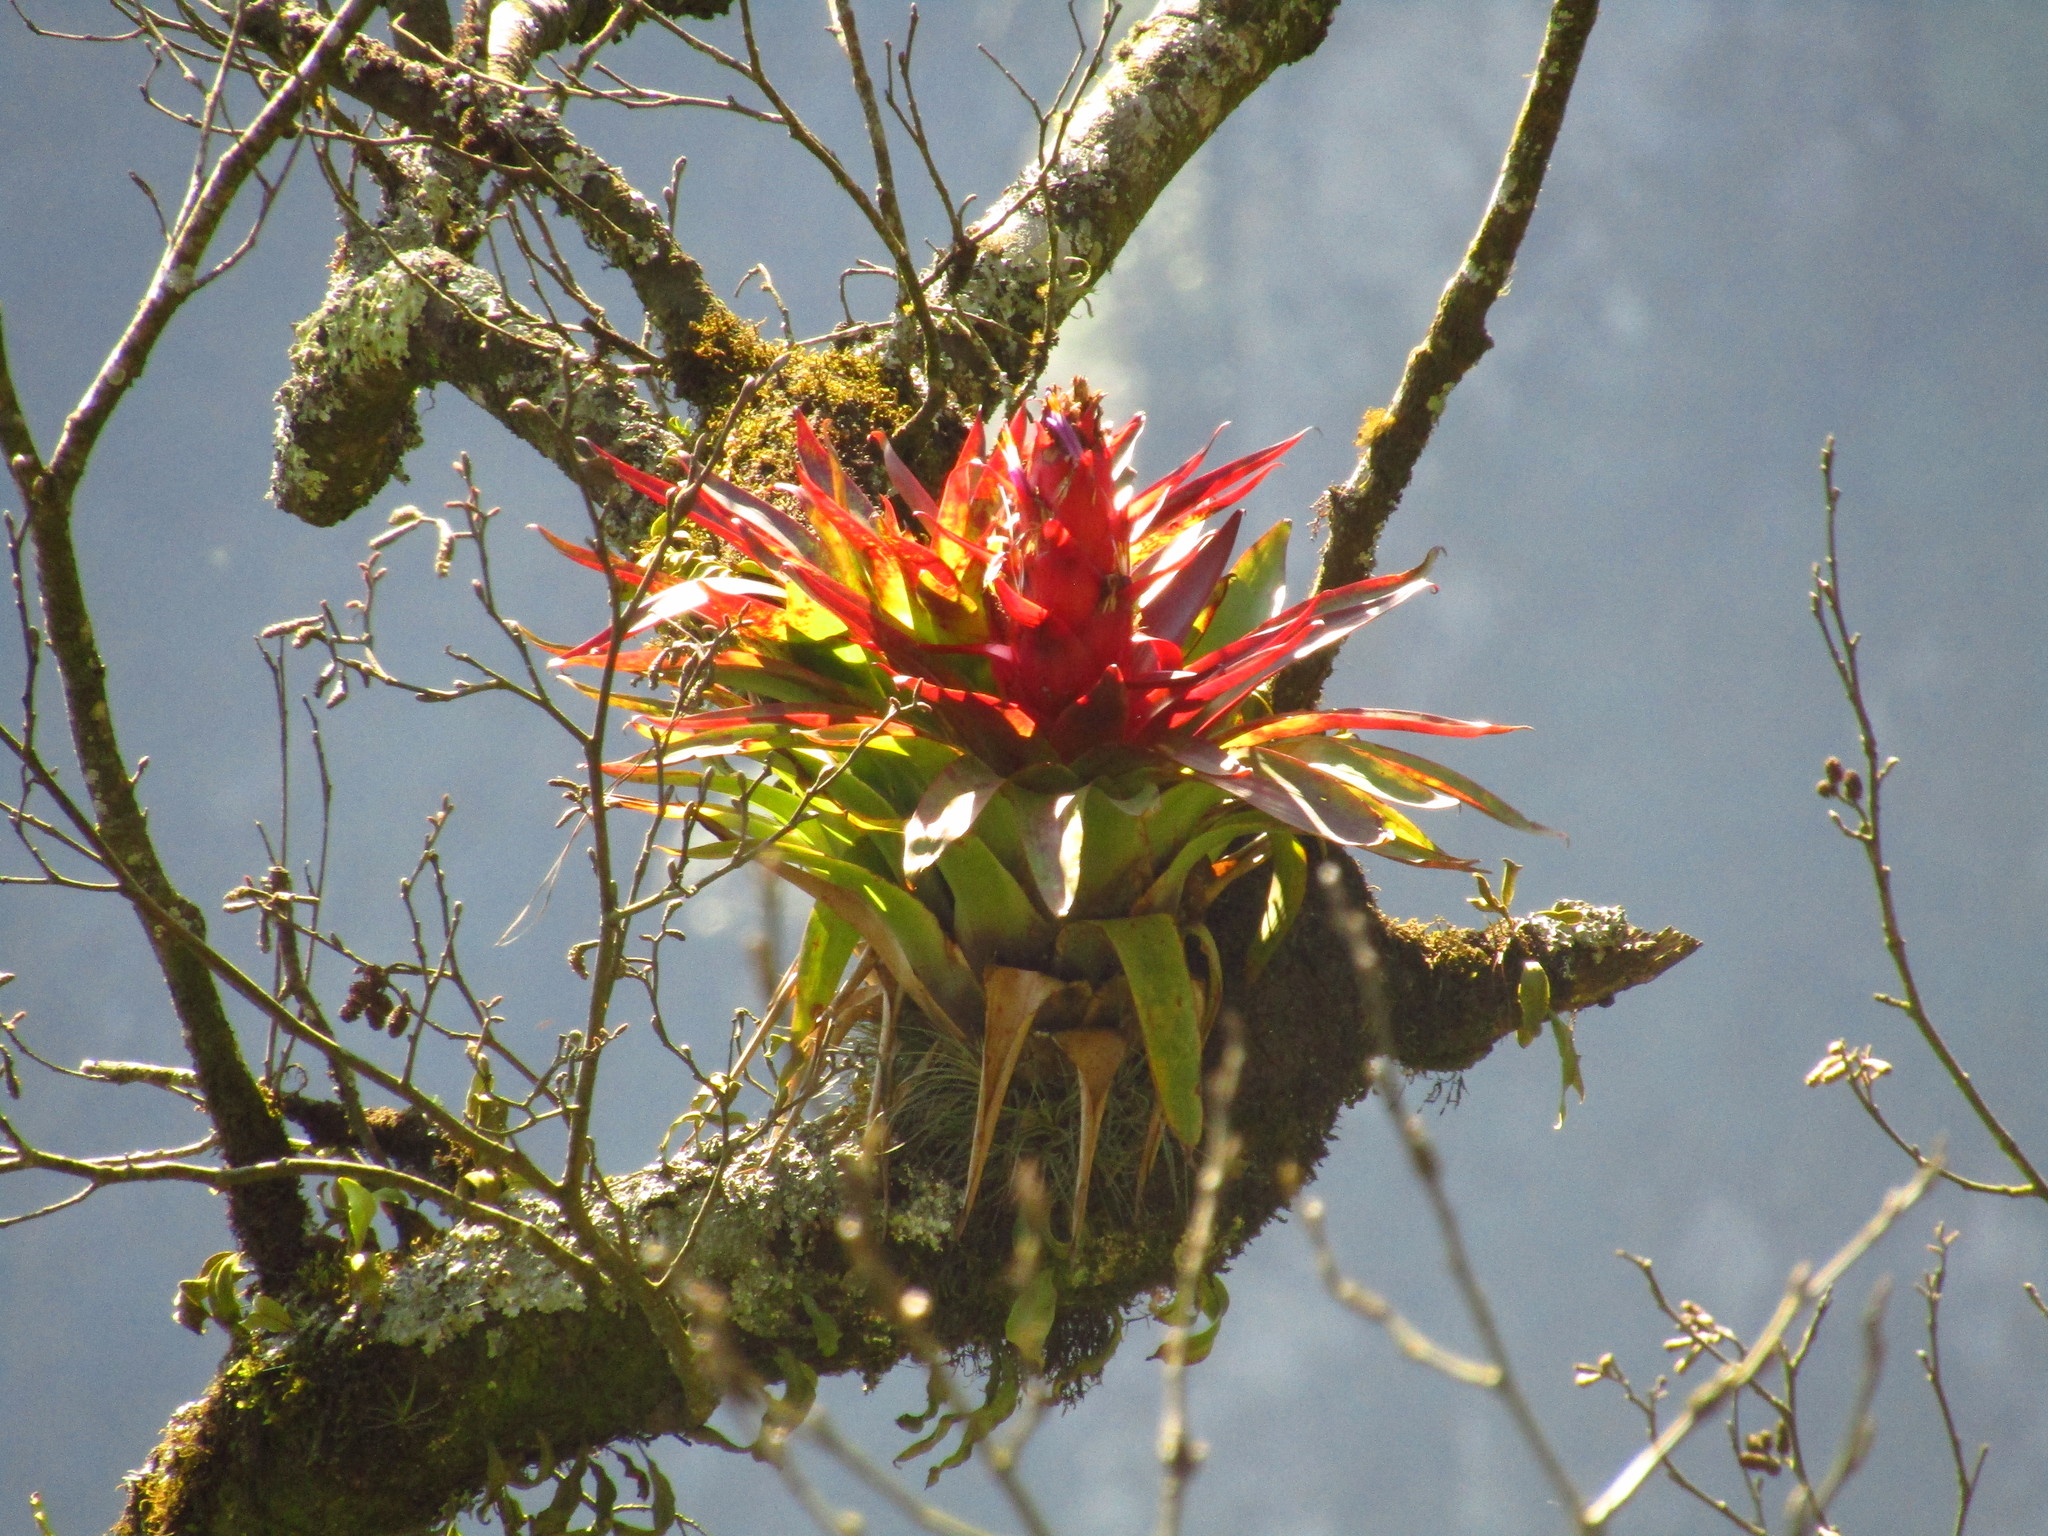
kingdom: Plantae
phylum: Tracheophyta
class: Liliopsida
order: Poales
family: Bromeliaceae
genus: Tillandsia
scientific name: Tillandsia imperialis
